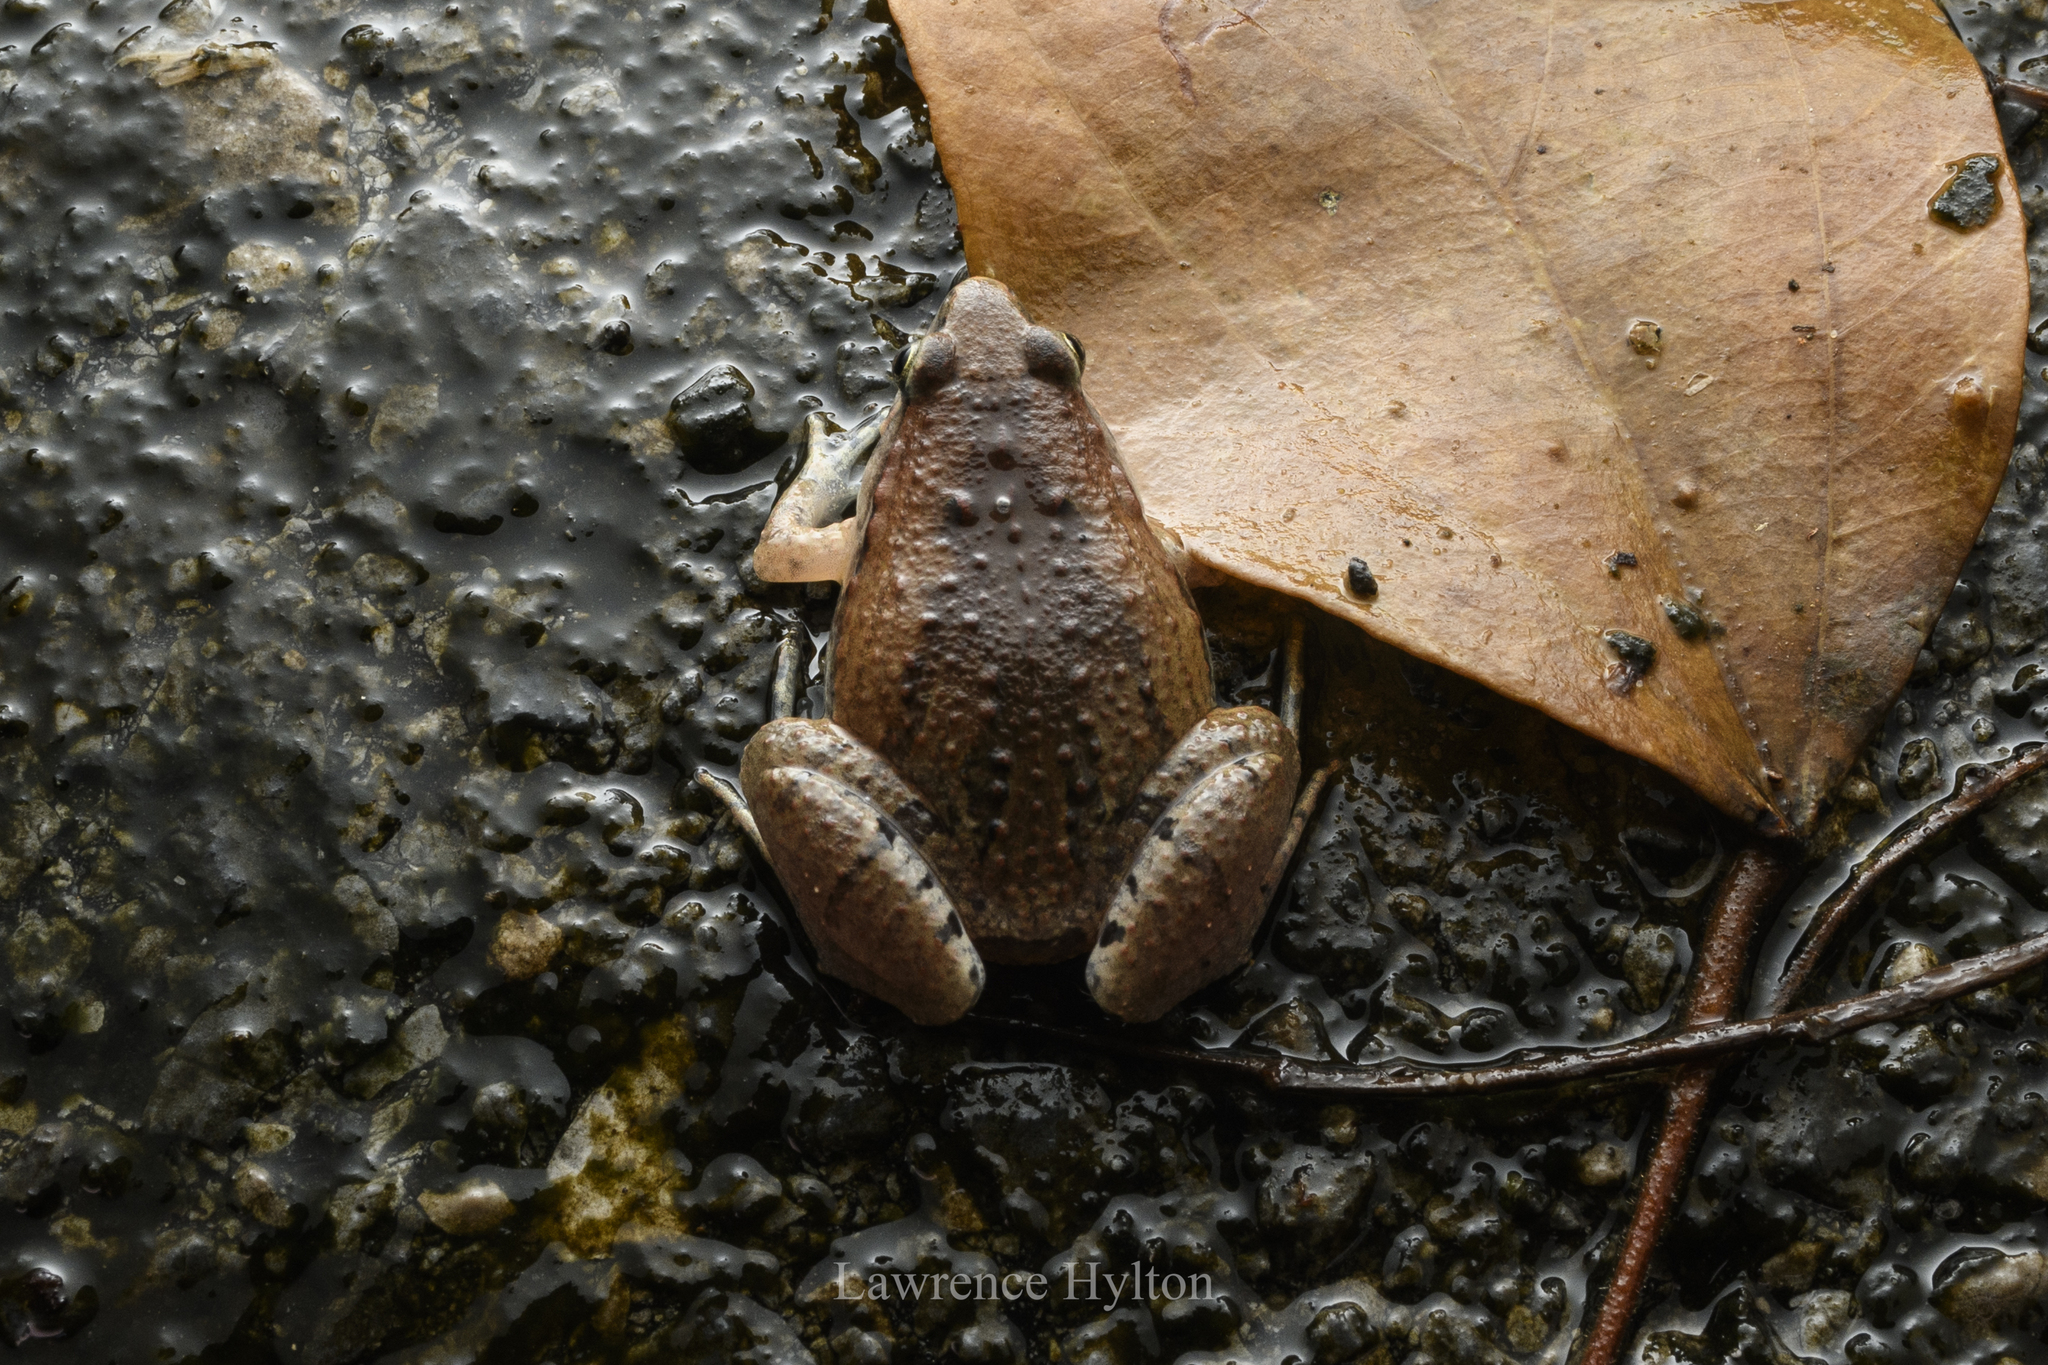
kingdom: Animalia
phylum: Chordata
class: Amphibia
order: Anura
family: Microhylidae
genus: Microhyla
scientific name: Microhyla mukhlesuri
